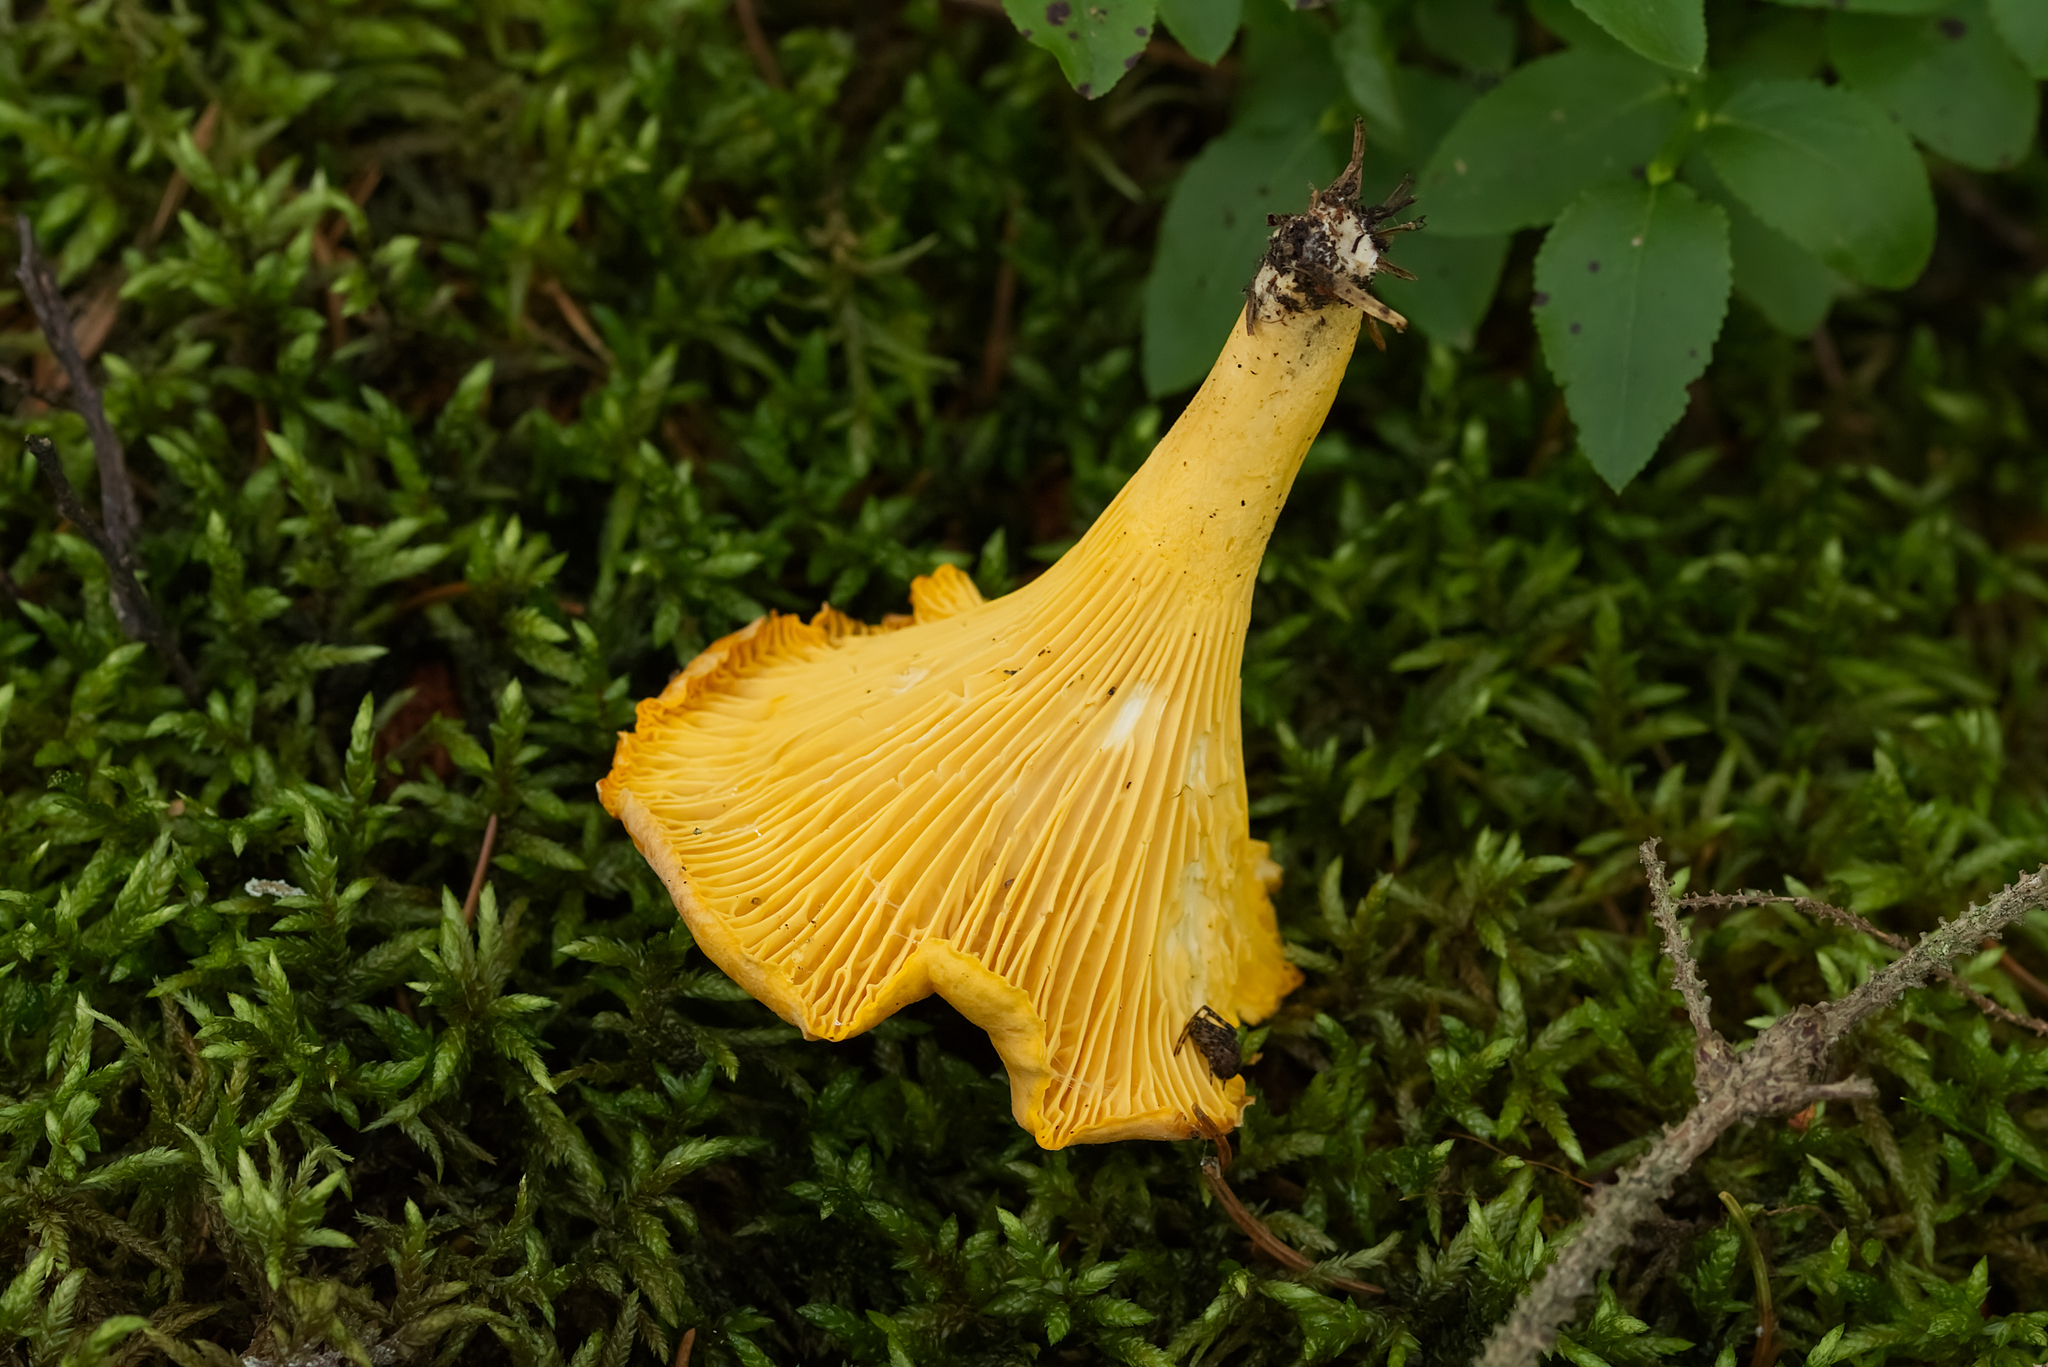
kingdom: Fungi
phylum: Basidiomycota
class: Agaricomycetes
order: Cantharellales
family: Hydnaceae
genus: Cantharellus
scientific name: Cantharellus cibarius
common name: Chanterelle
